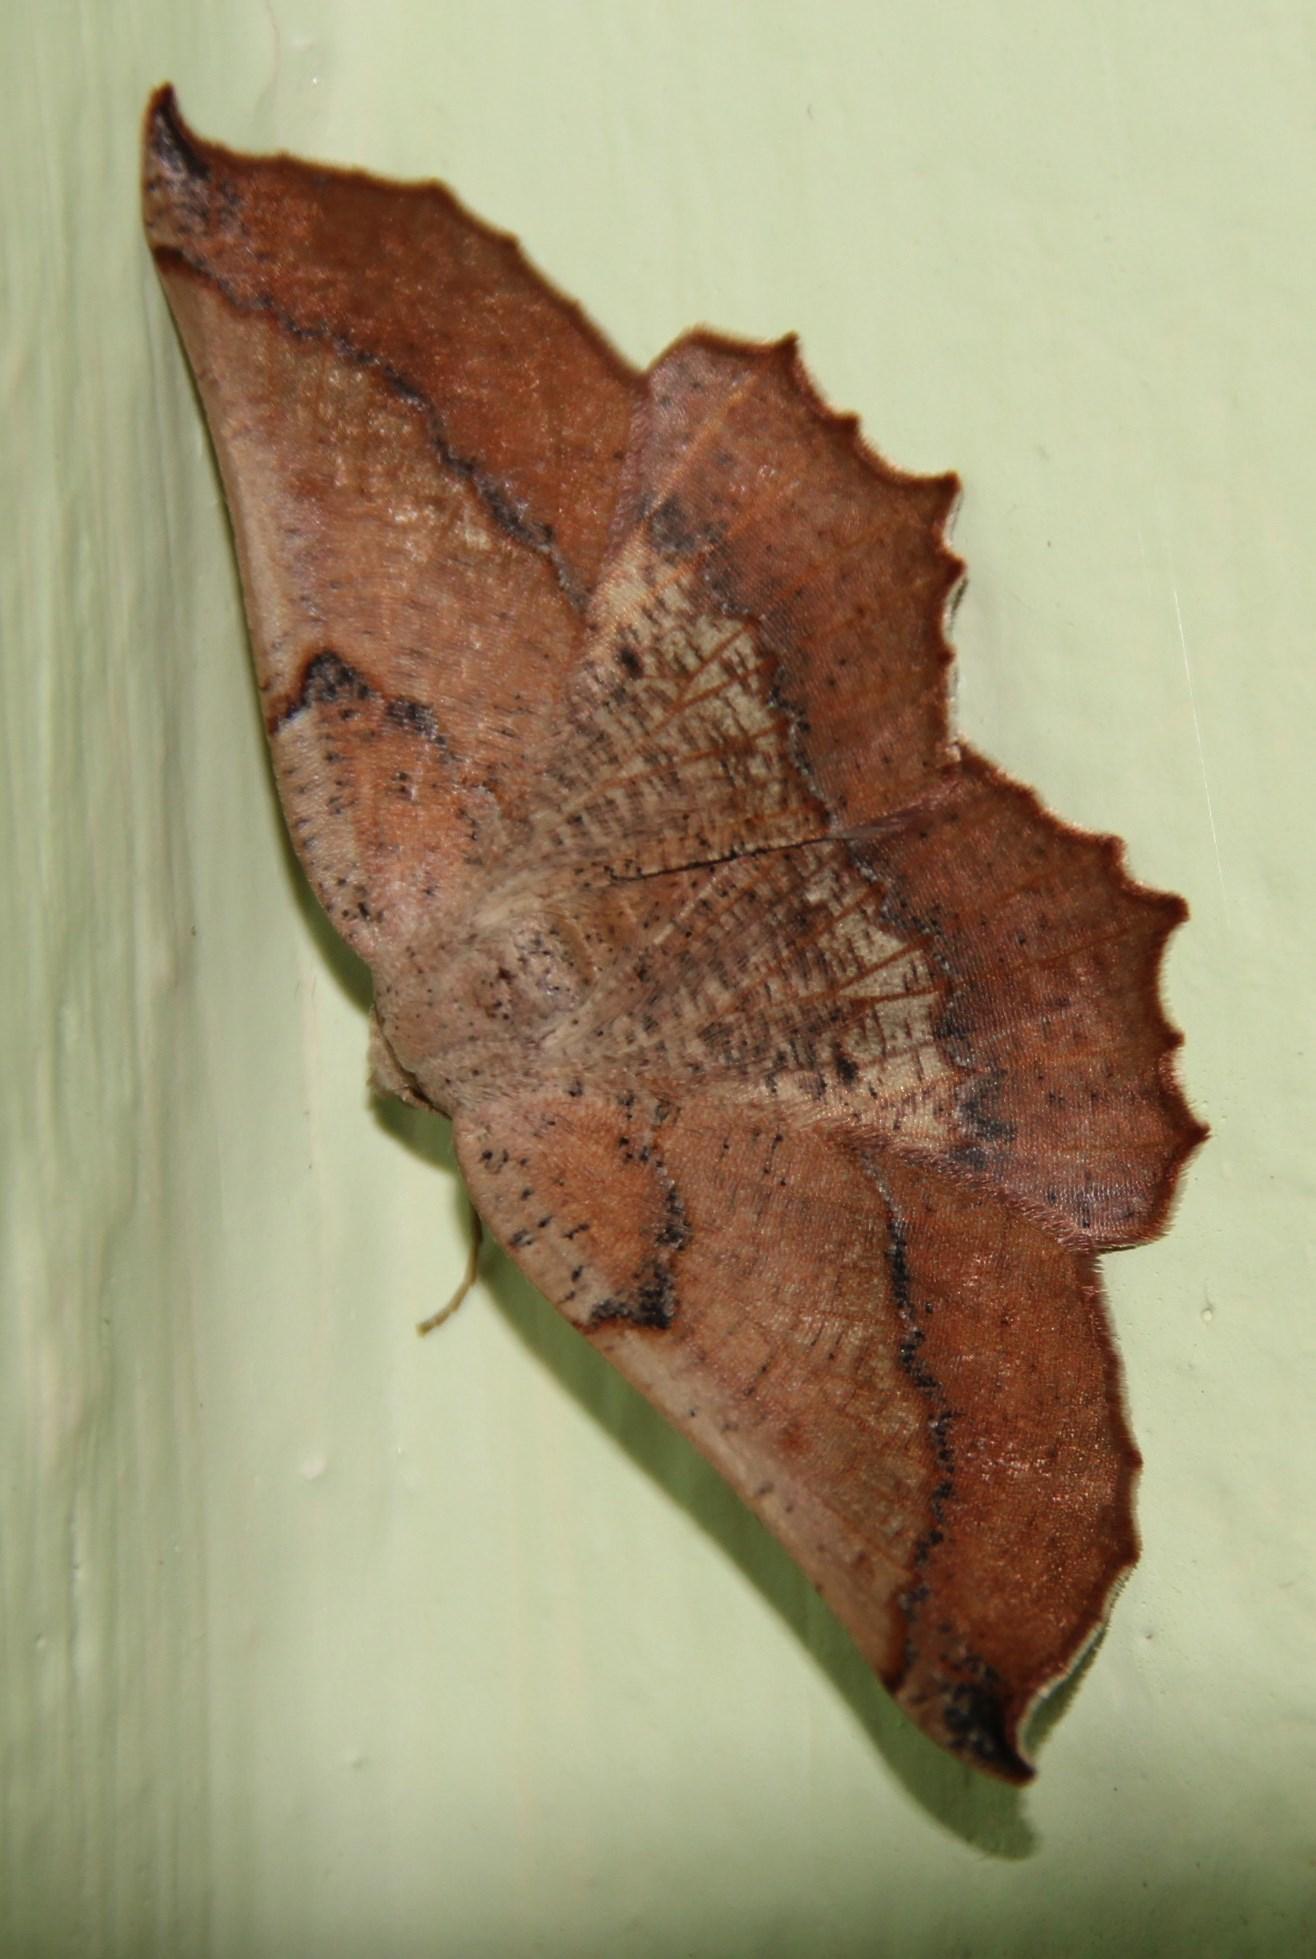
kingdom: Animalia
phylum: Arthropoda
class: Insecta
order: Lepidoptera
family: Geometridae
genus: Drepanogynis
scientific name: Drepanogynis mixtaria
